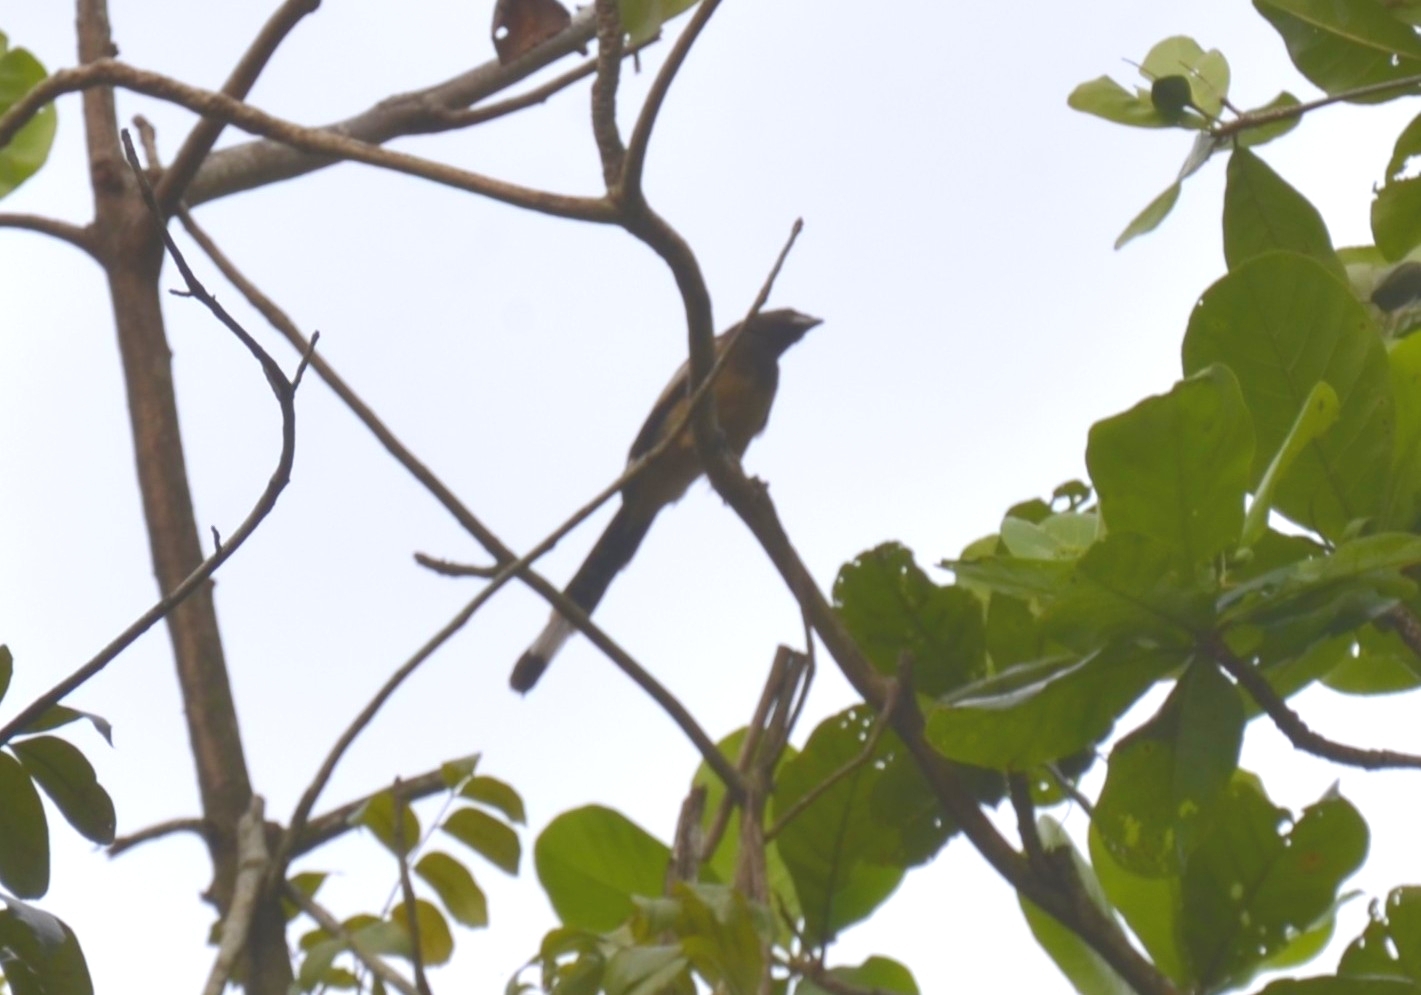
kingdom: Animalia
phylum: Chordata
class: Aves
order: Passeriformes
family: Corvidae
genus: Dendrocitta
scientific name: Dendrocitta vagabunda
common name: Rufous treepie
